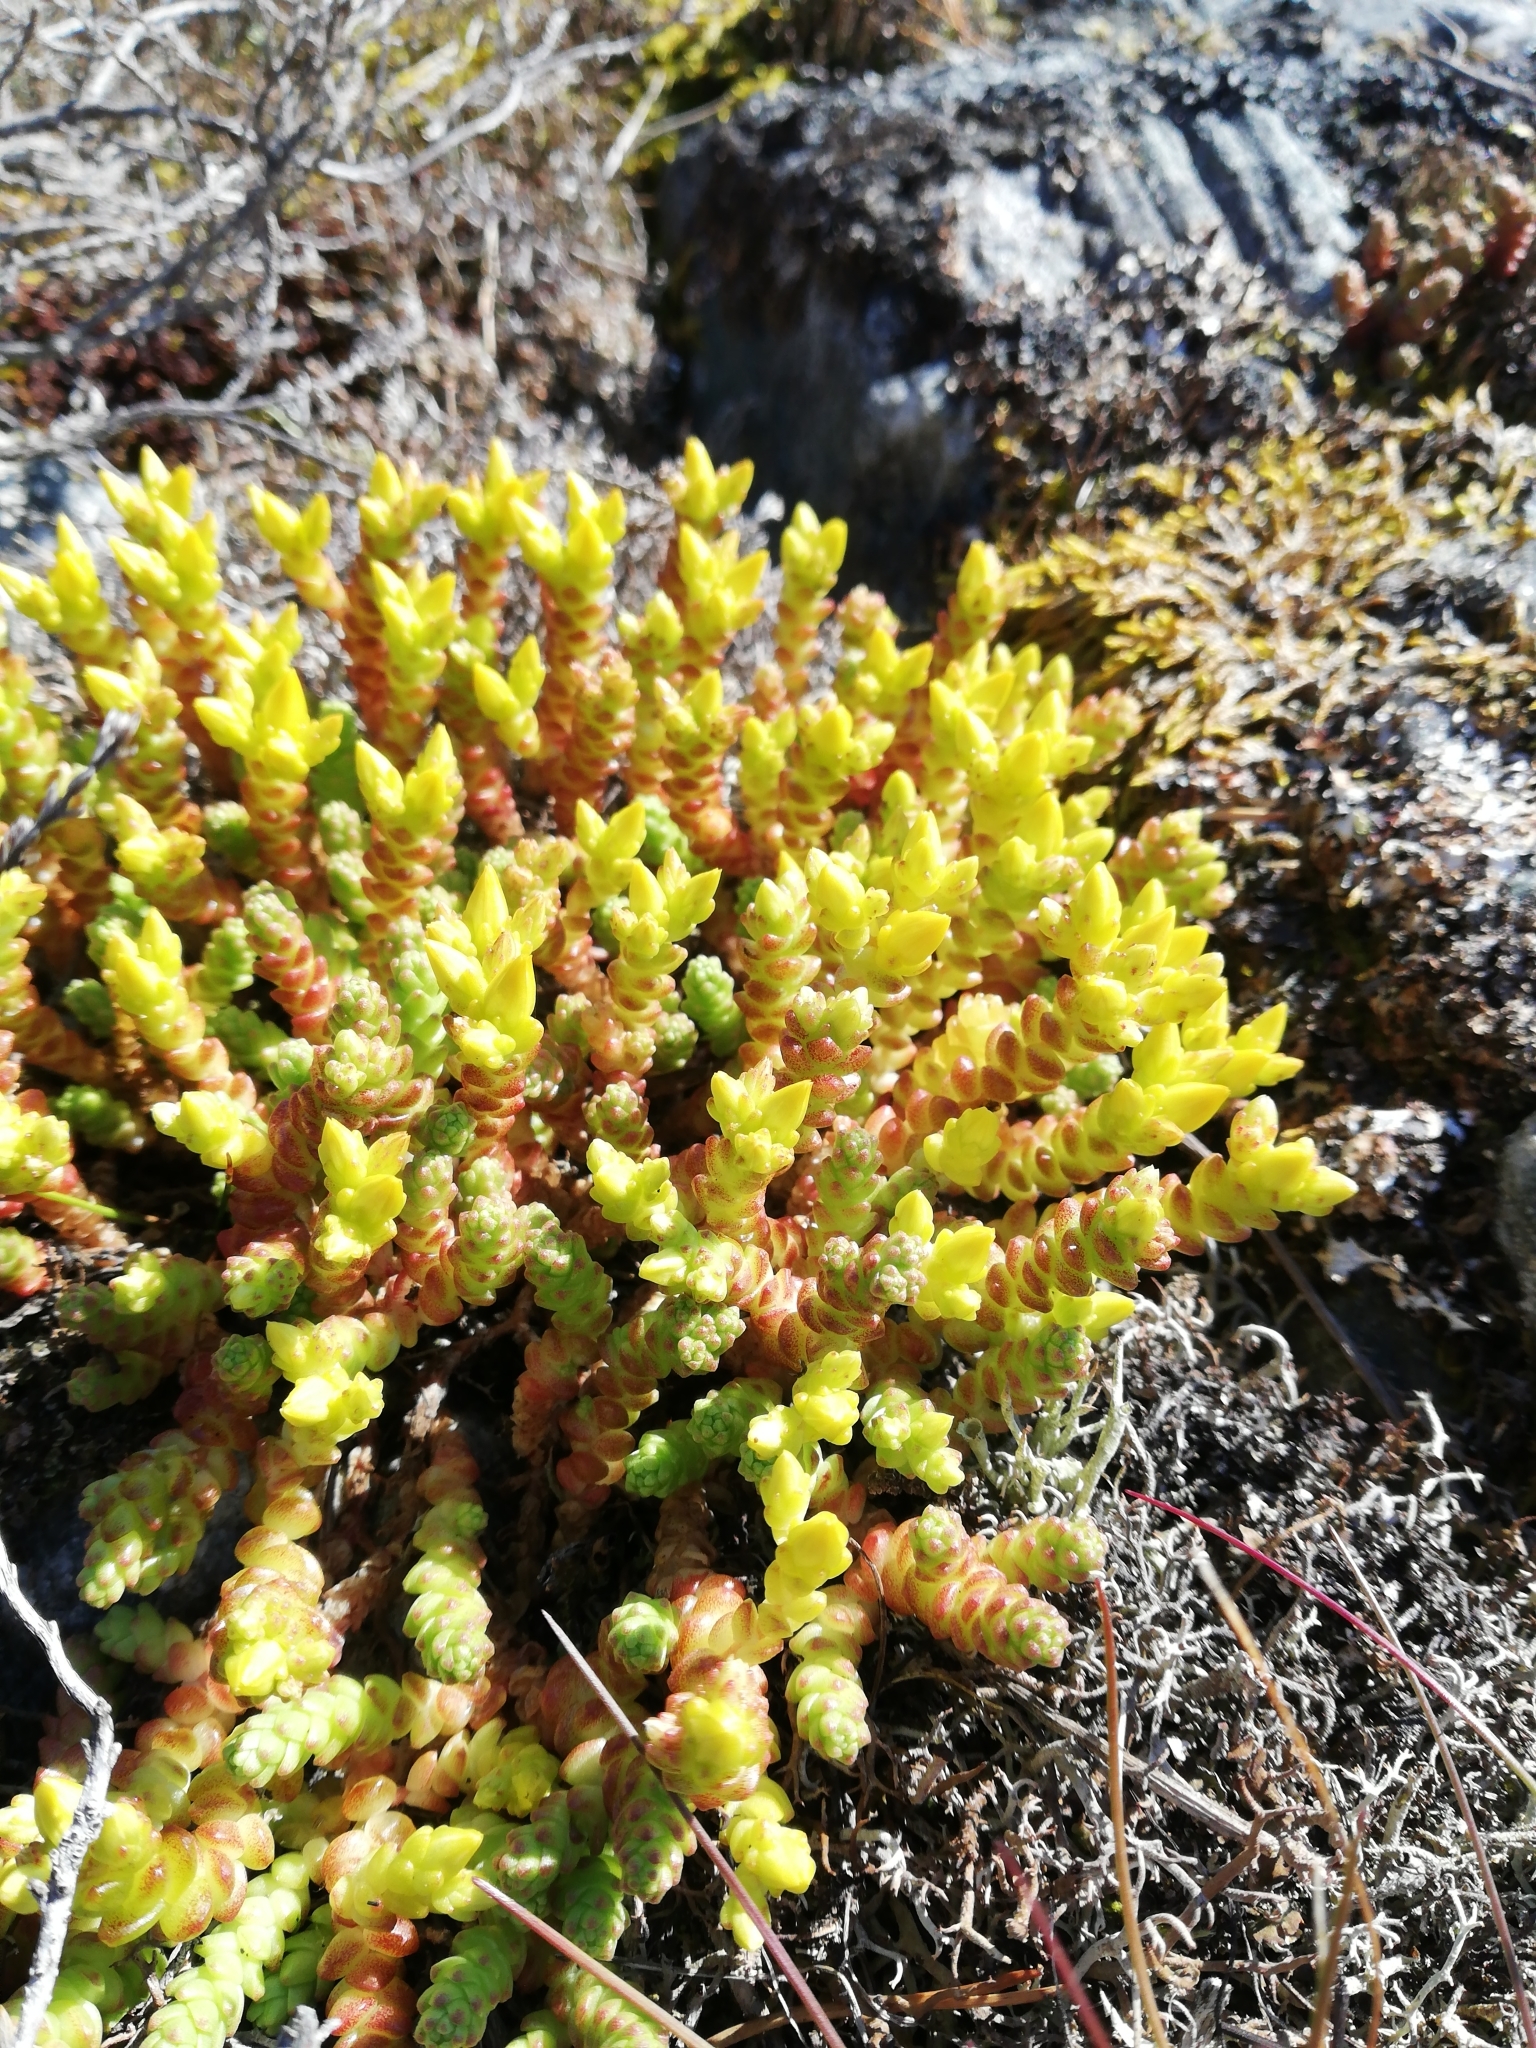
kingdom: Plantae
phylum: Tracheophyta
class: Magnoliopsida
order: Saxifragales
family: Crassulaceae
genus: Sedum
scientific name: Sedum acre
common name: Biting stonecrop
